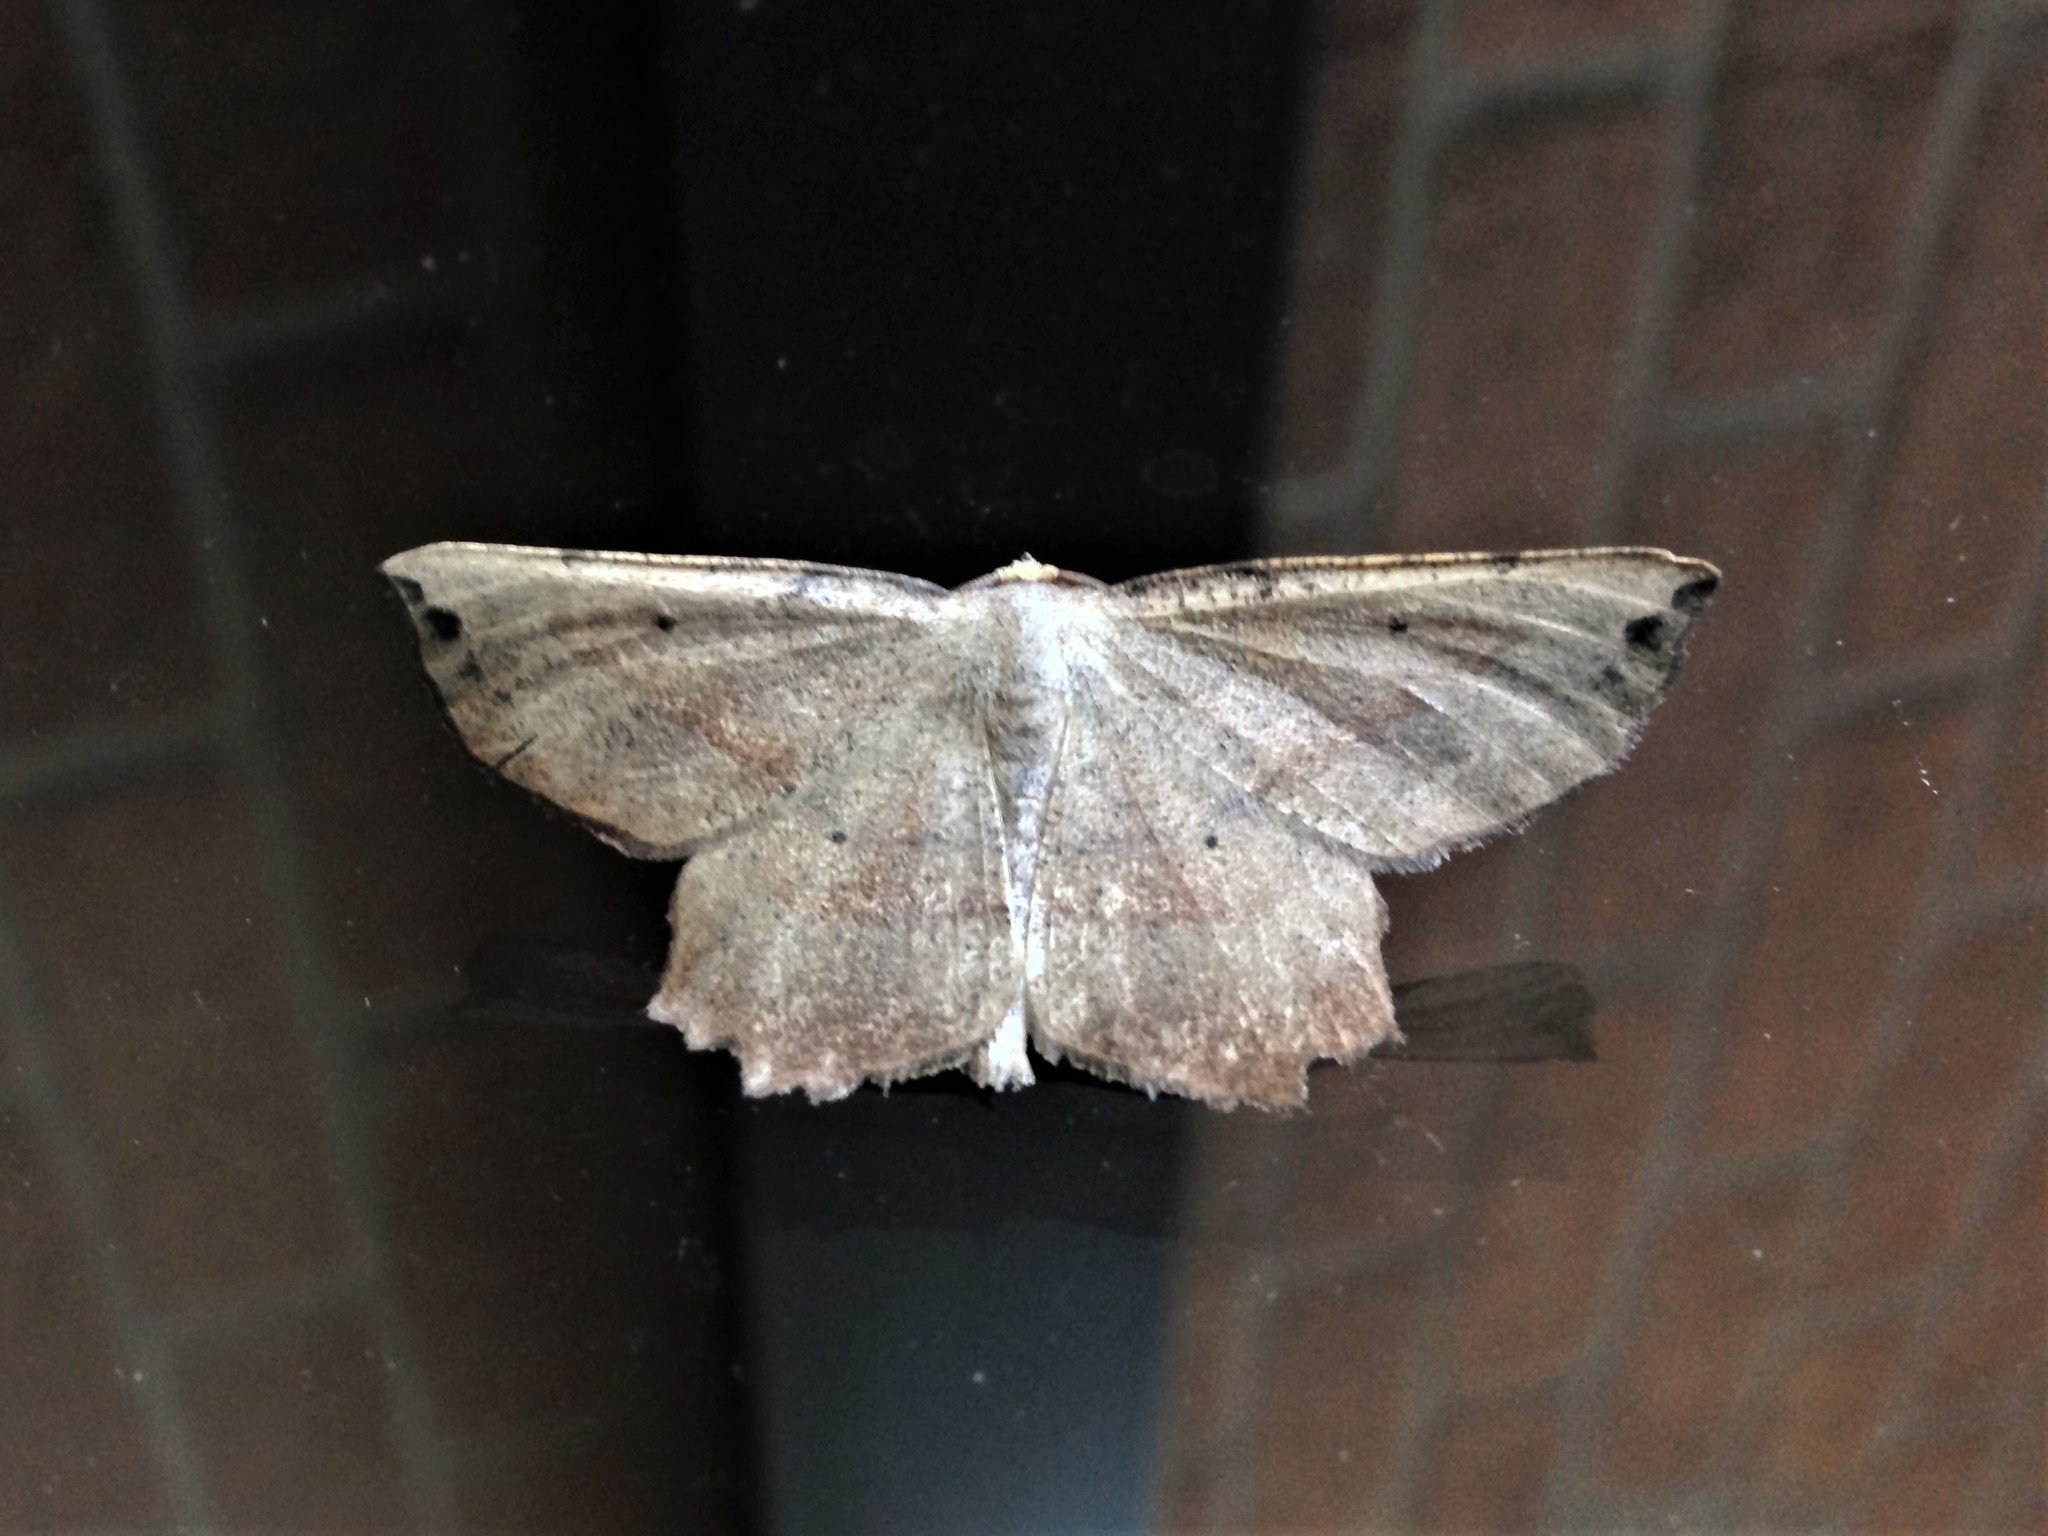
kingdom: Animalia
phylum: Arthropoda
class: Insecta
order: Lepidoptera
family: Geometridae
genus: Euchlaena
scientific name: Euchlaena obtusaria
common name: Obtuse euchlaena moth
